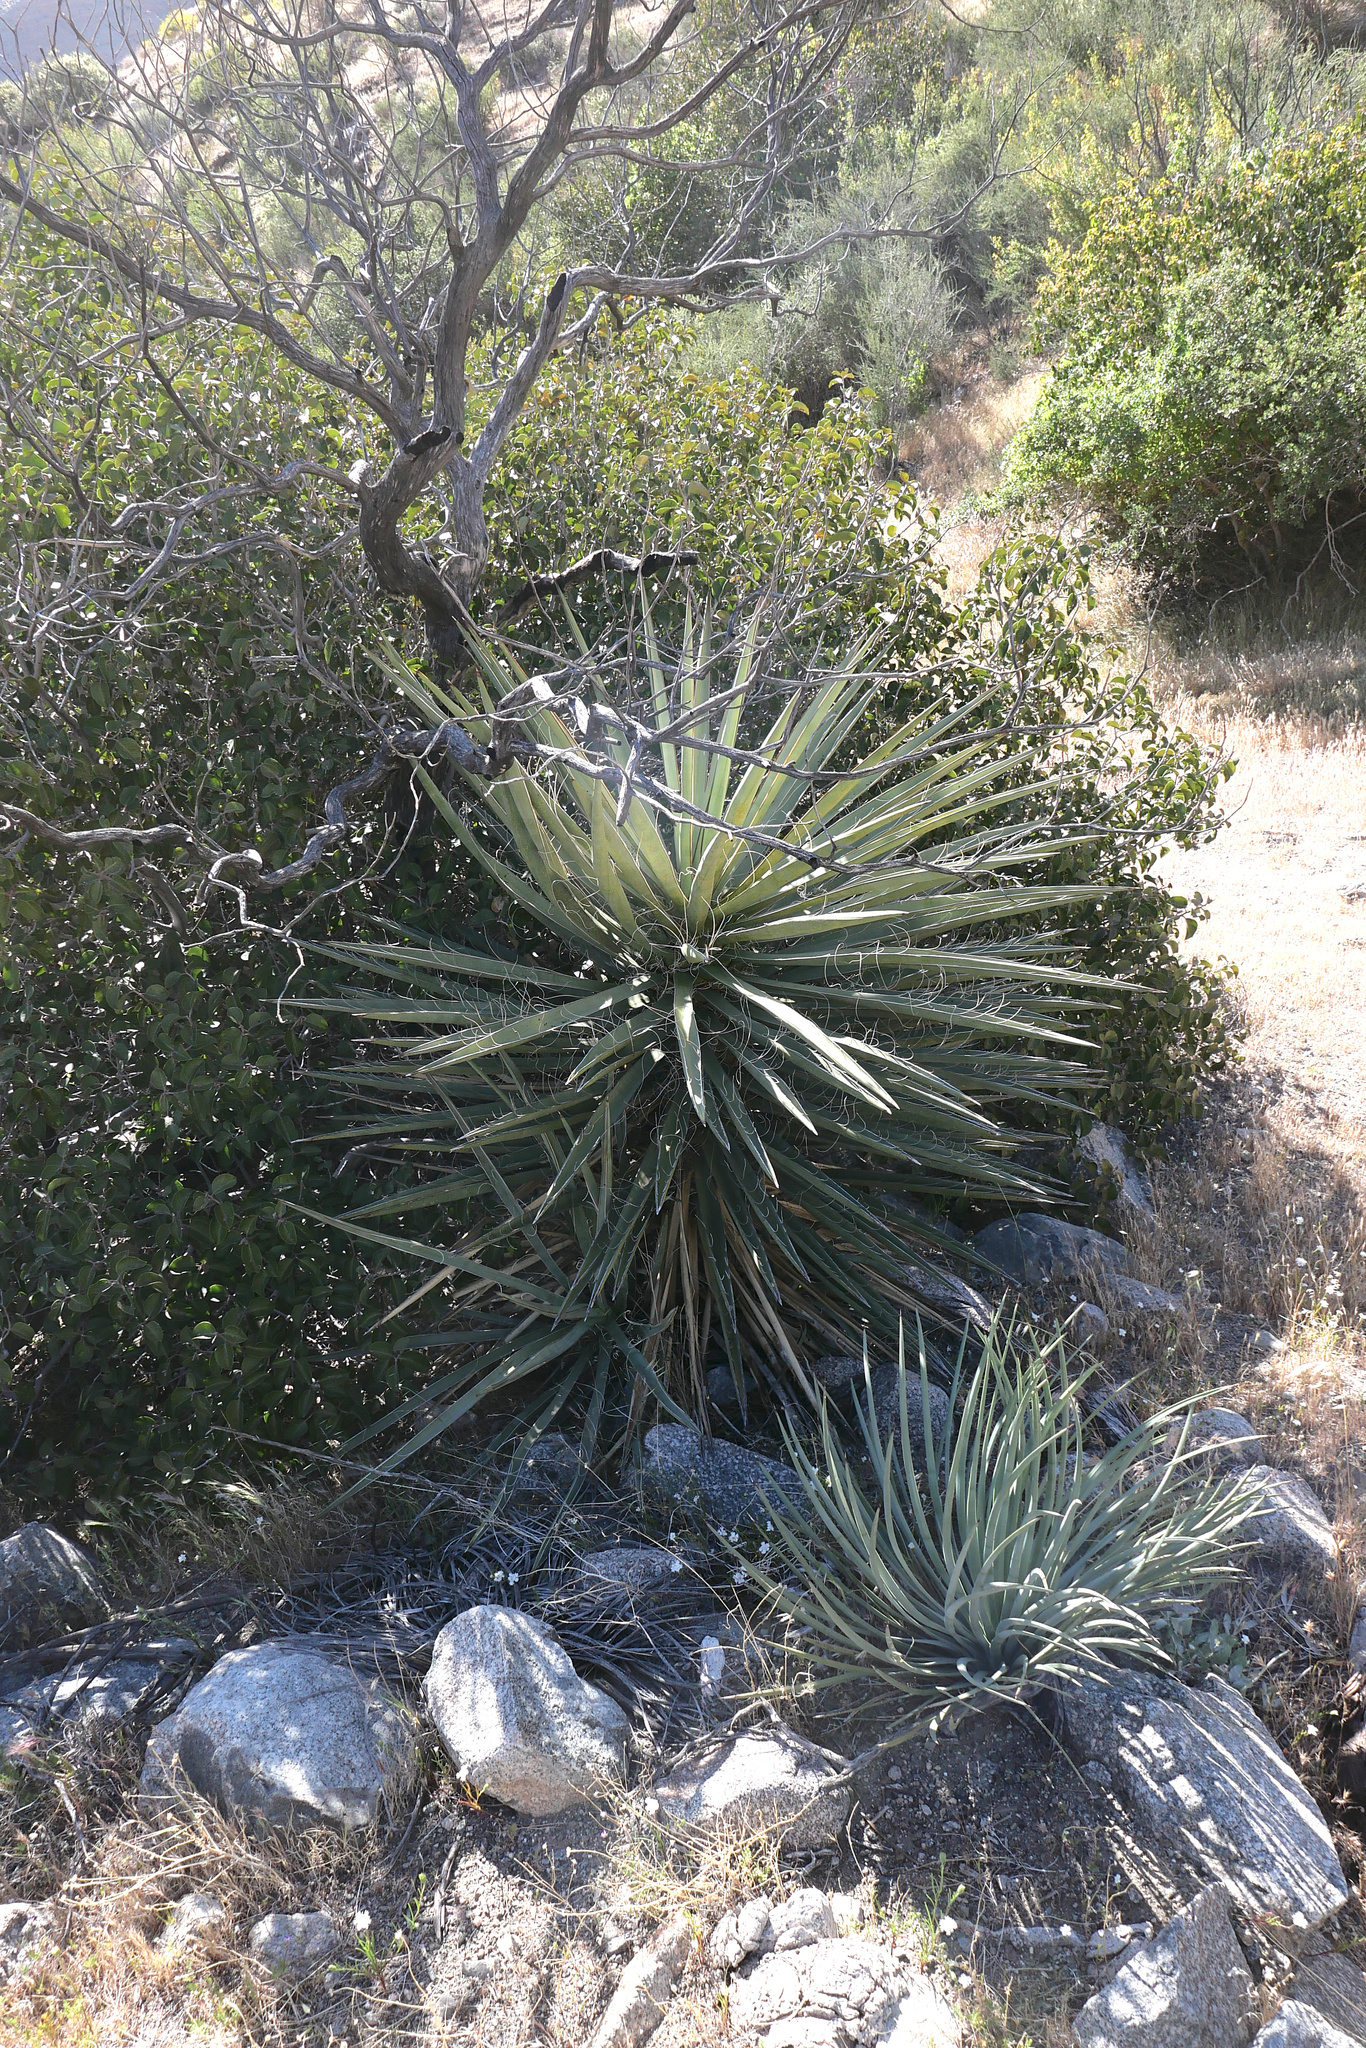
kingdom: Plantae
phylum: Tracheophyta
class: Liliopsida
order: Asparagales
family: Asparagaceae
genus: Yucca
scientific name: Yucca schidigera
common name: Mojave yucca
